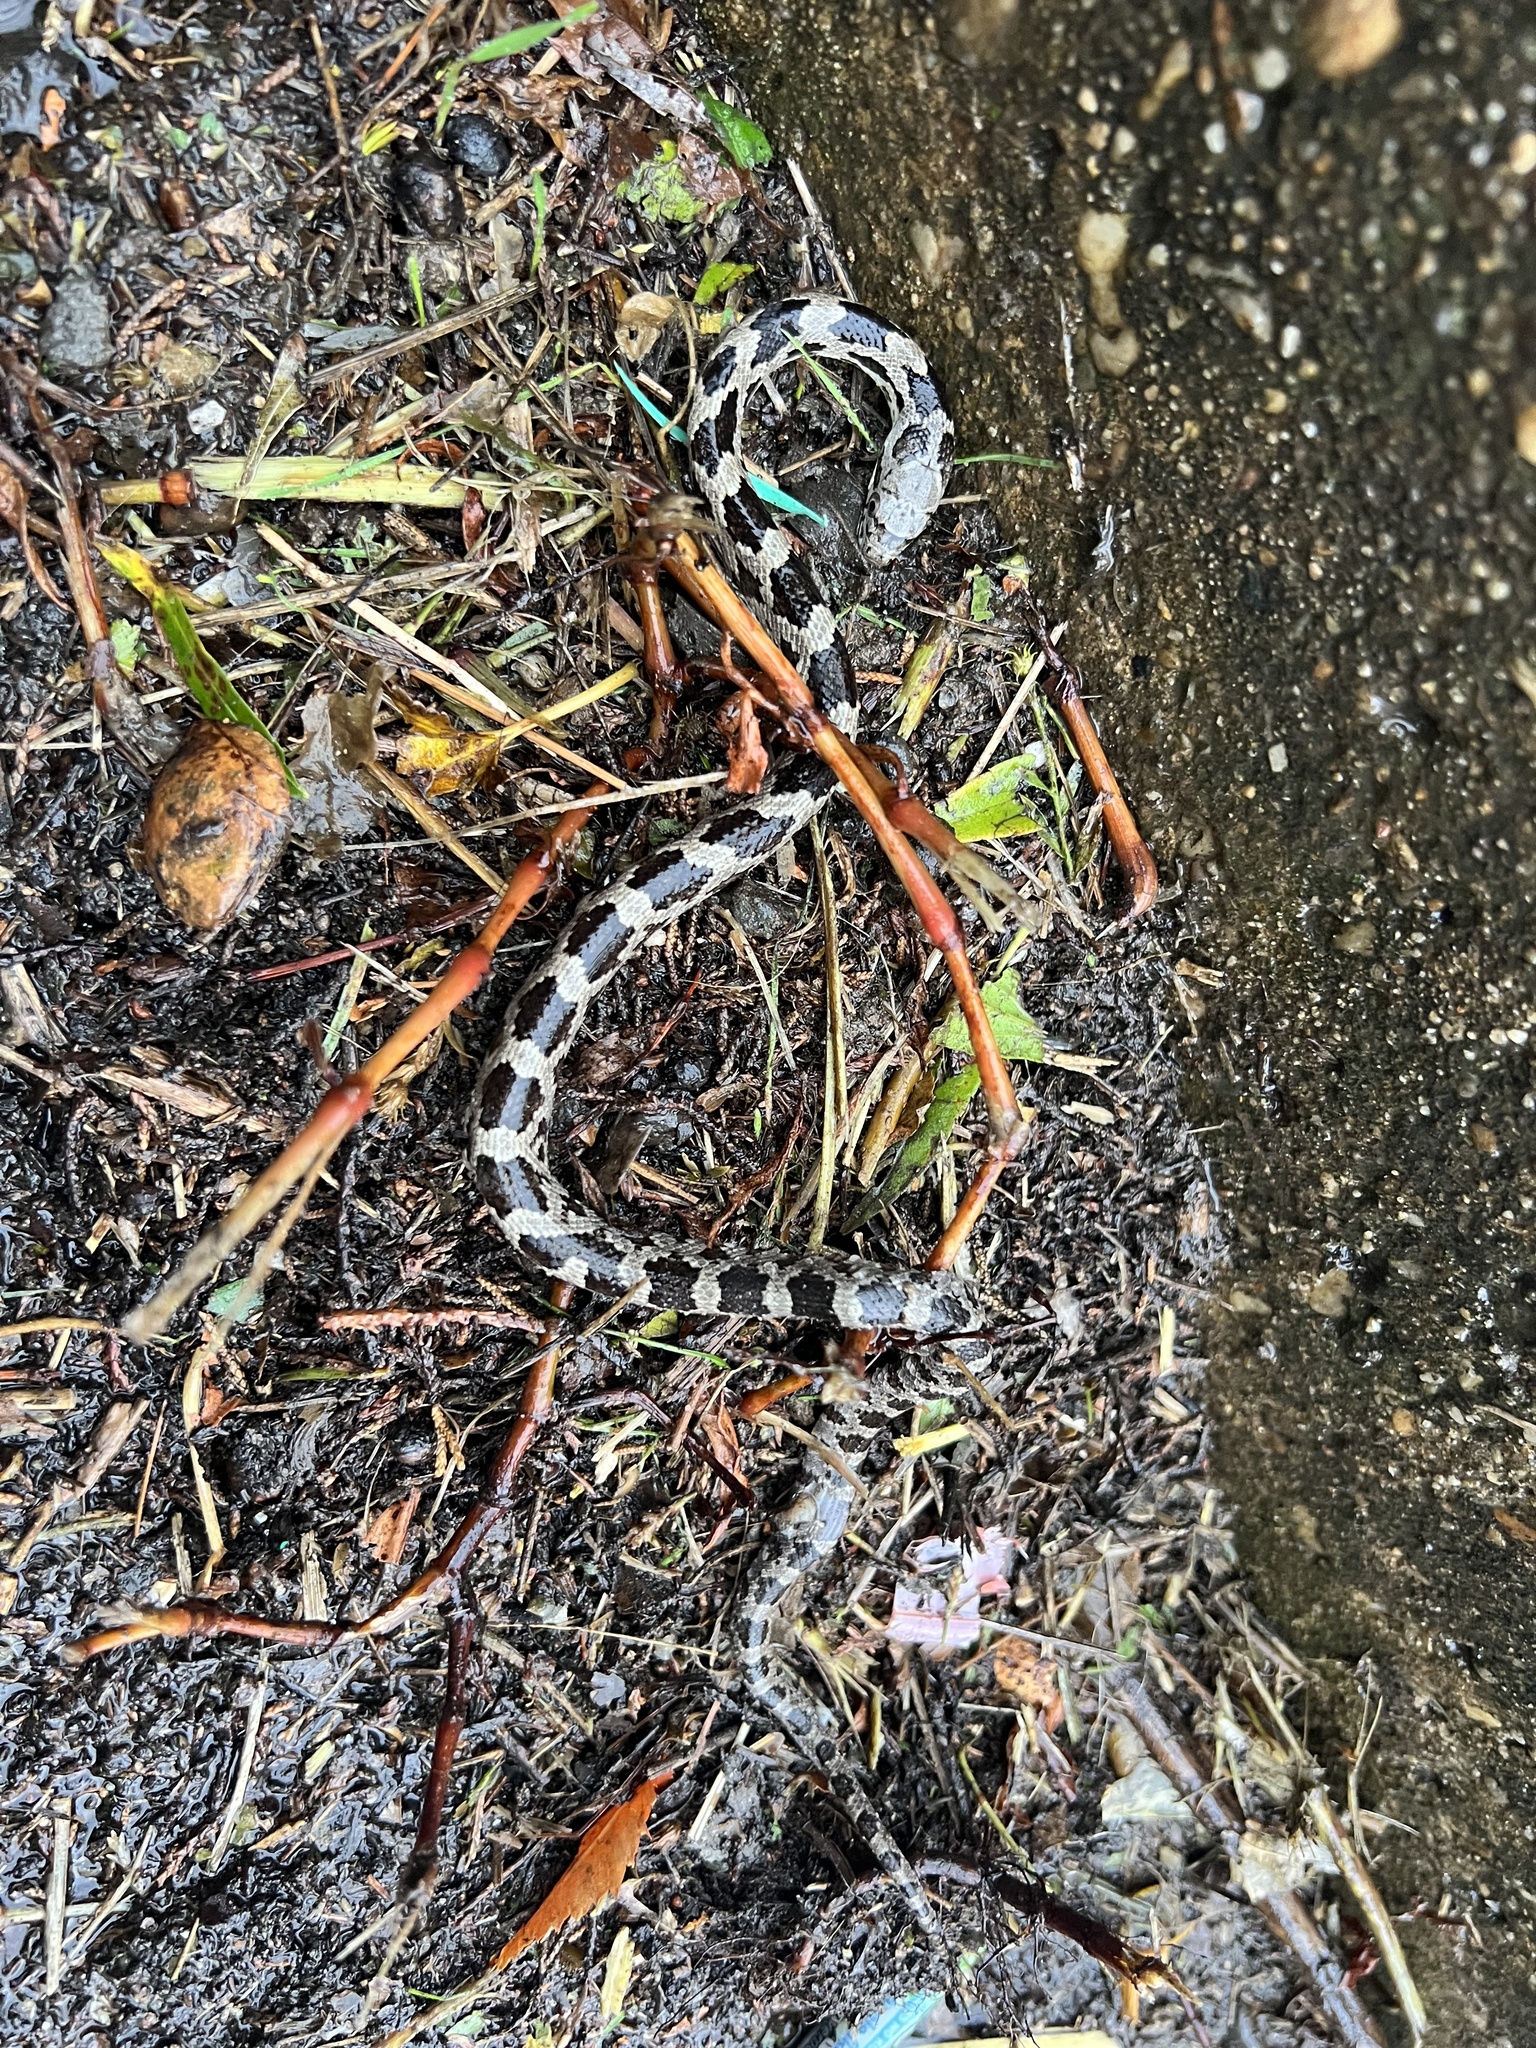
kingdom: Animalia
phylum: Chordata
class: Squamata
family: Colubridae
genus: Pantherophis
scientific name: Pantherophis alleghaniensis
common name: Eastern rat snake
